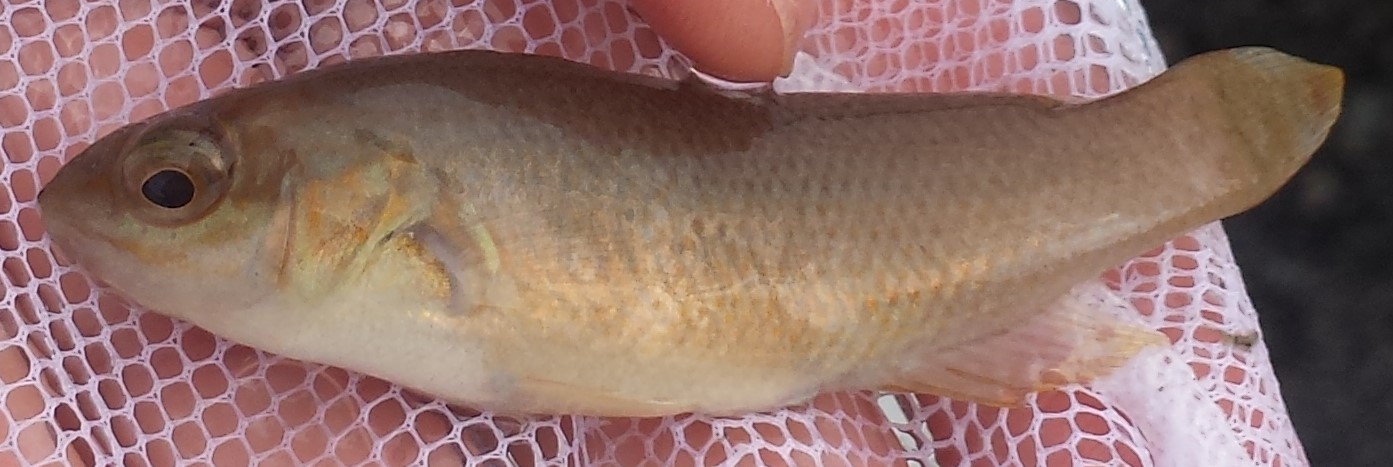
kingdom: Animalia
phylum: Chordata
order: Perciformes
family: Labridae
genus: Tautogolabrus
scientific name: Tautogolabrus adspersus
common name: Cunner
